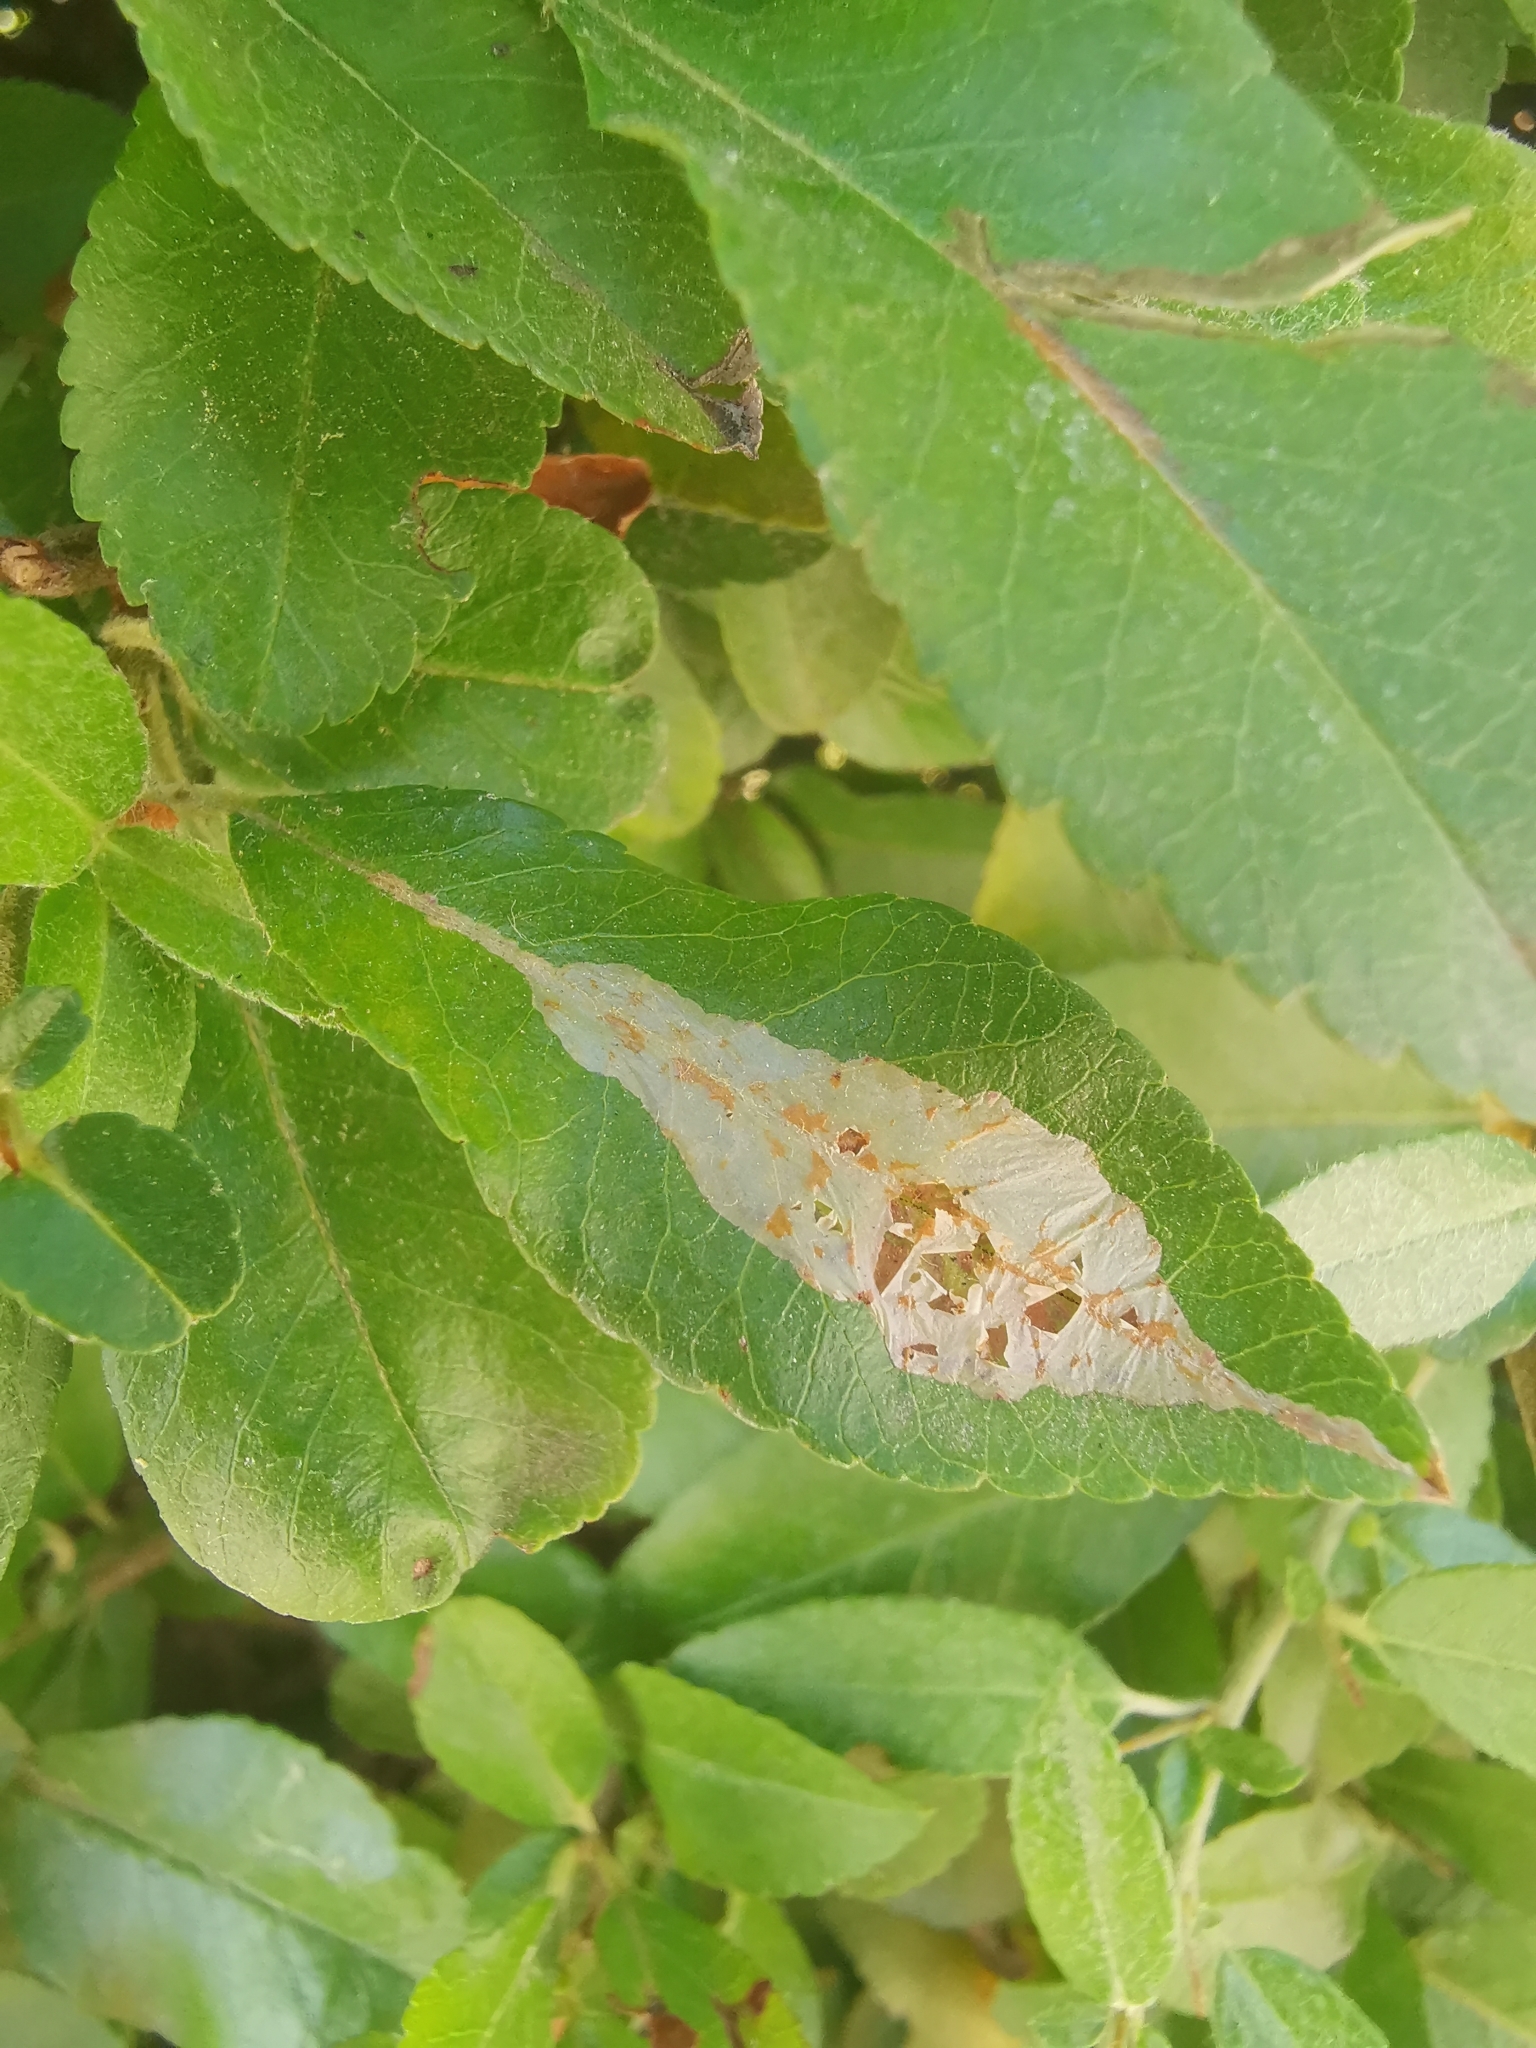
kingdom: Animalia
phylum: Arthropoda
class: Insecta
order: Lepidoptera
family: Gracillariidae
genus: Phyllonorycter
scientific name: Phyllonorycter leucographella
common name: Firethorn leaf-miner
